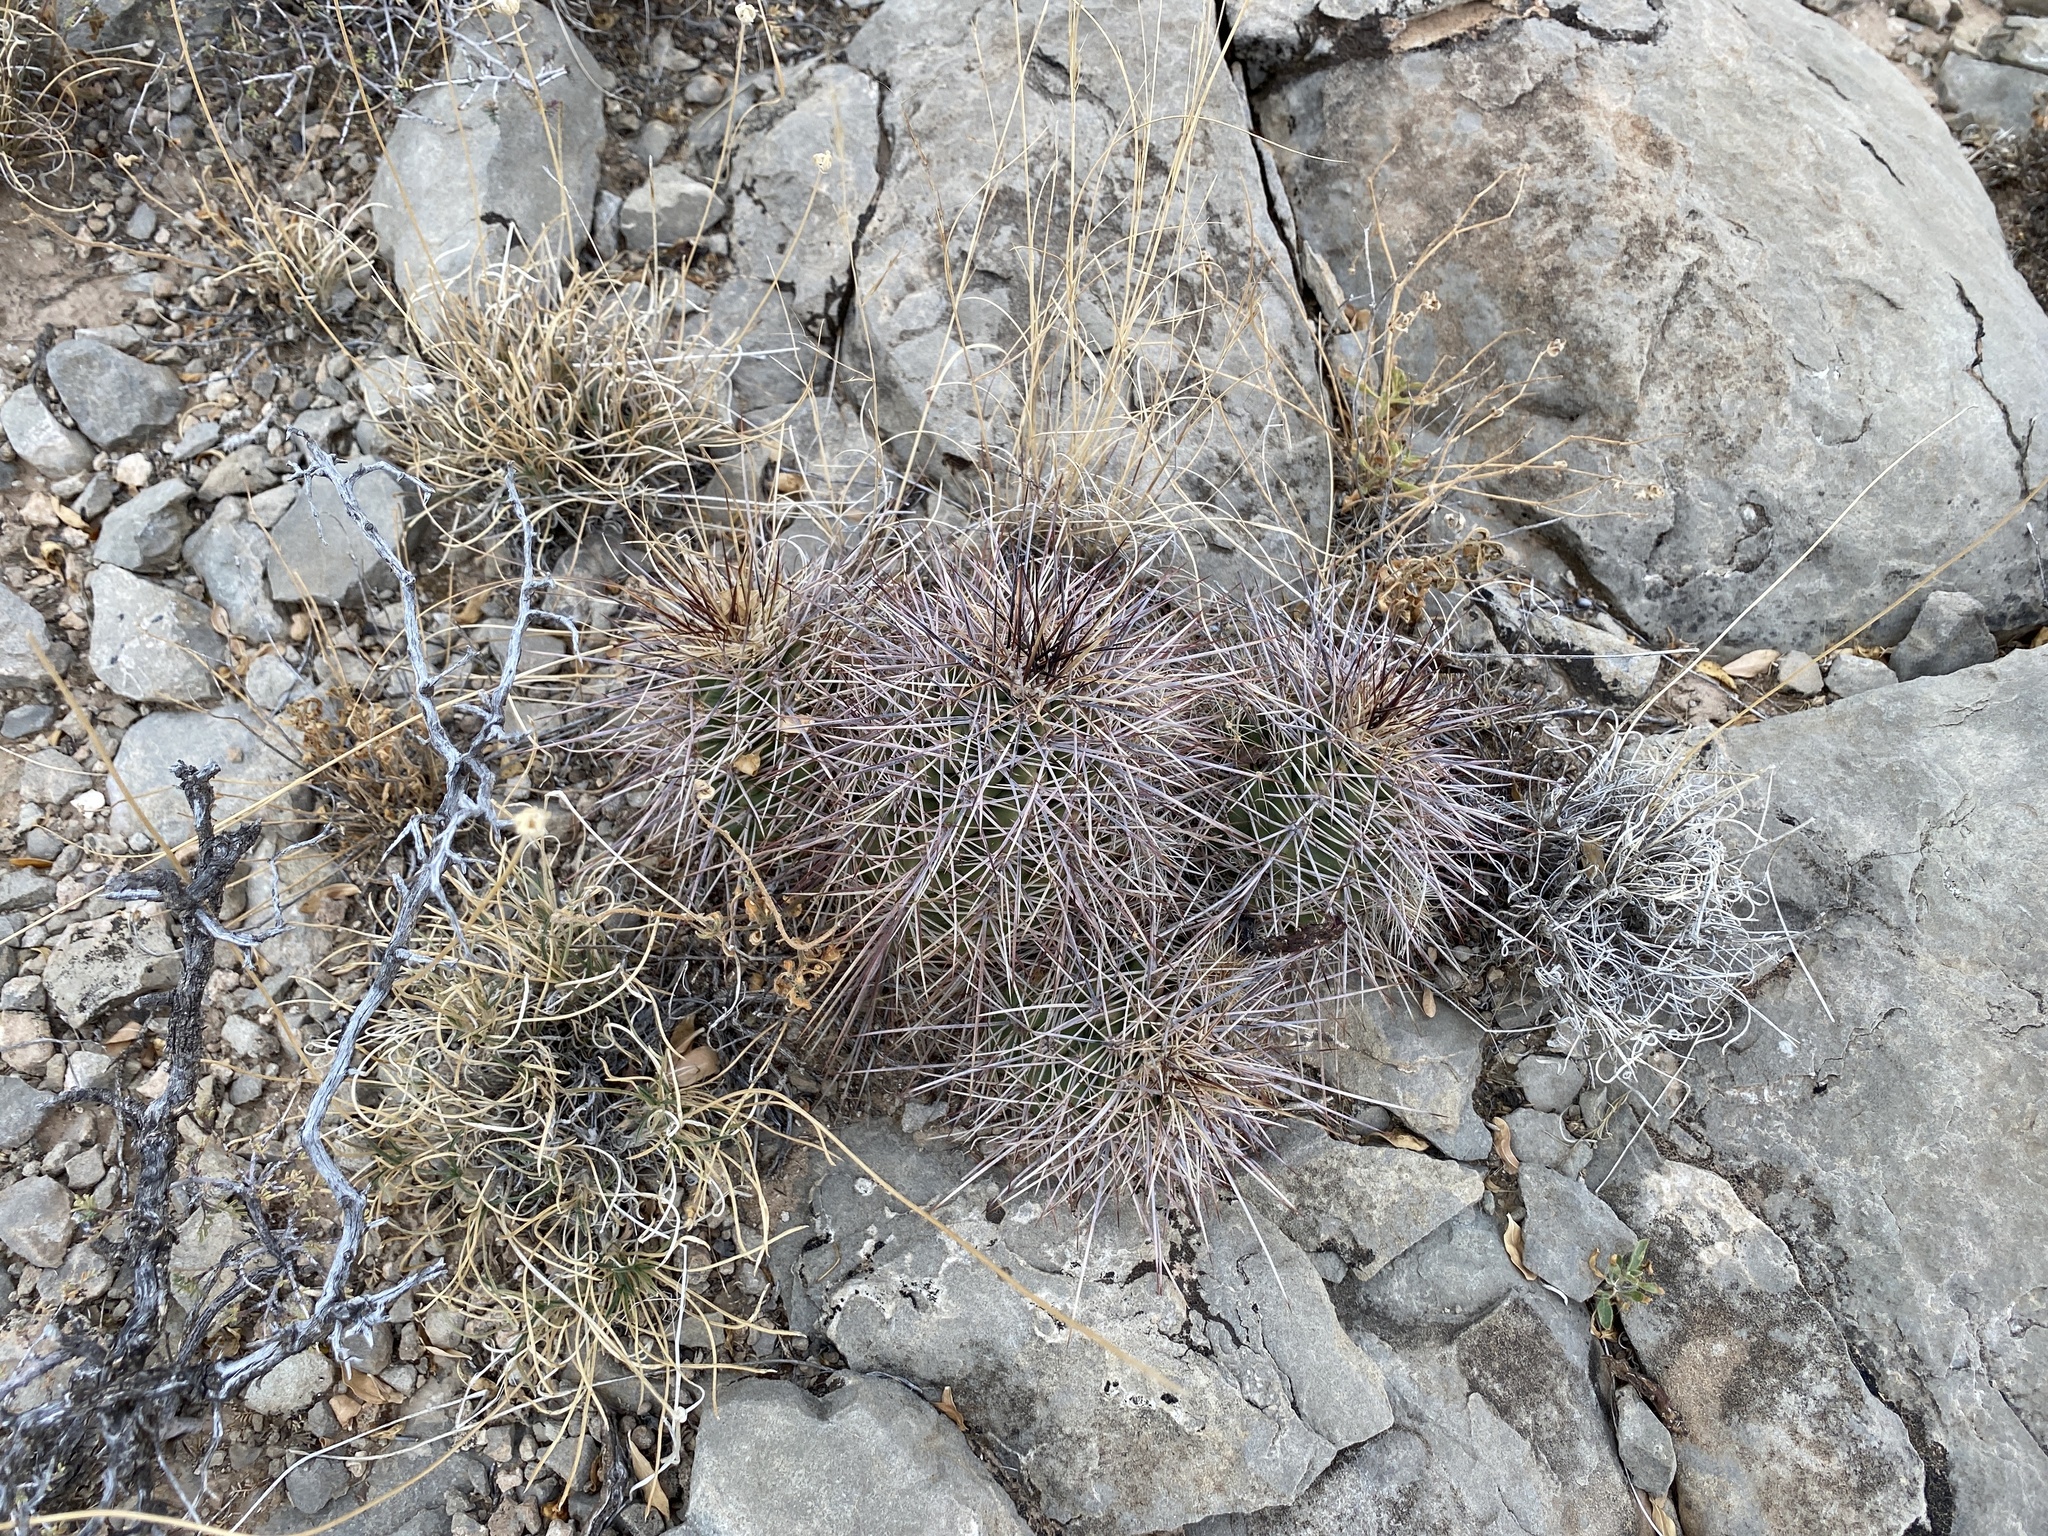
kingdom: Plantae
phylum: Tracheophyta
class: Magnoliopsida
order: Caryophyllales
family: Cactaceae
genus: Echinocereus
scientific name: Echinocereus coccineus
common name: Scarlet hedgehog cactus
